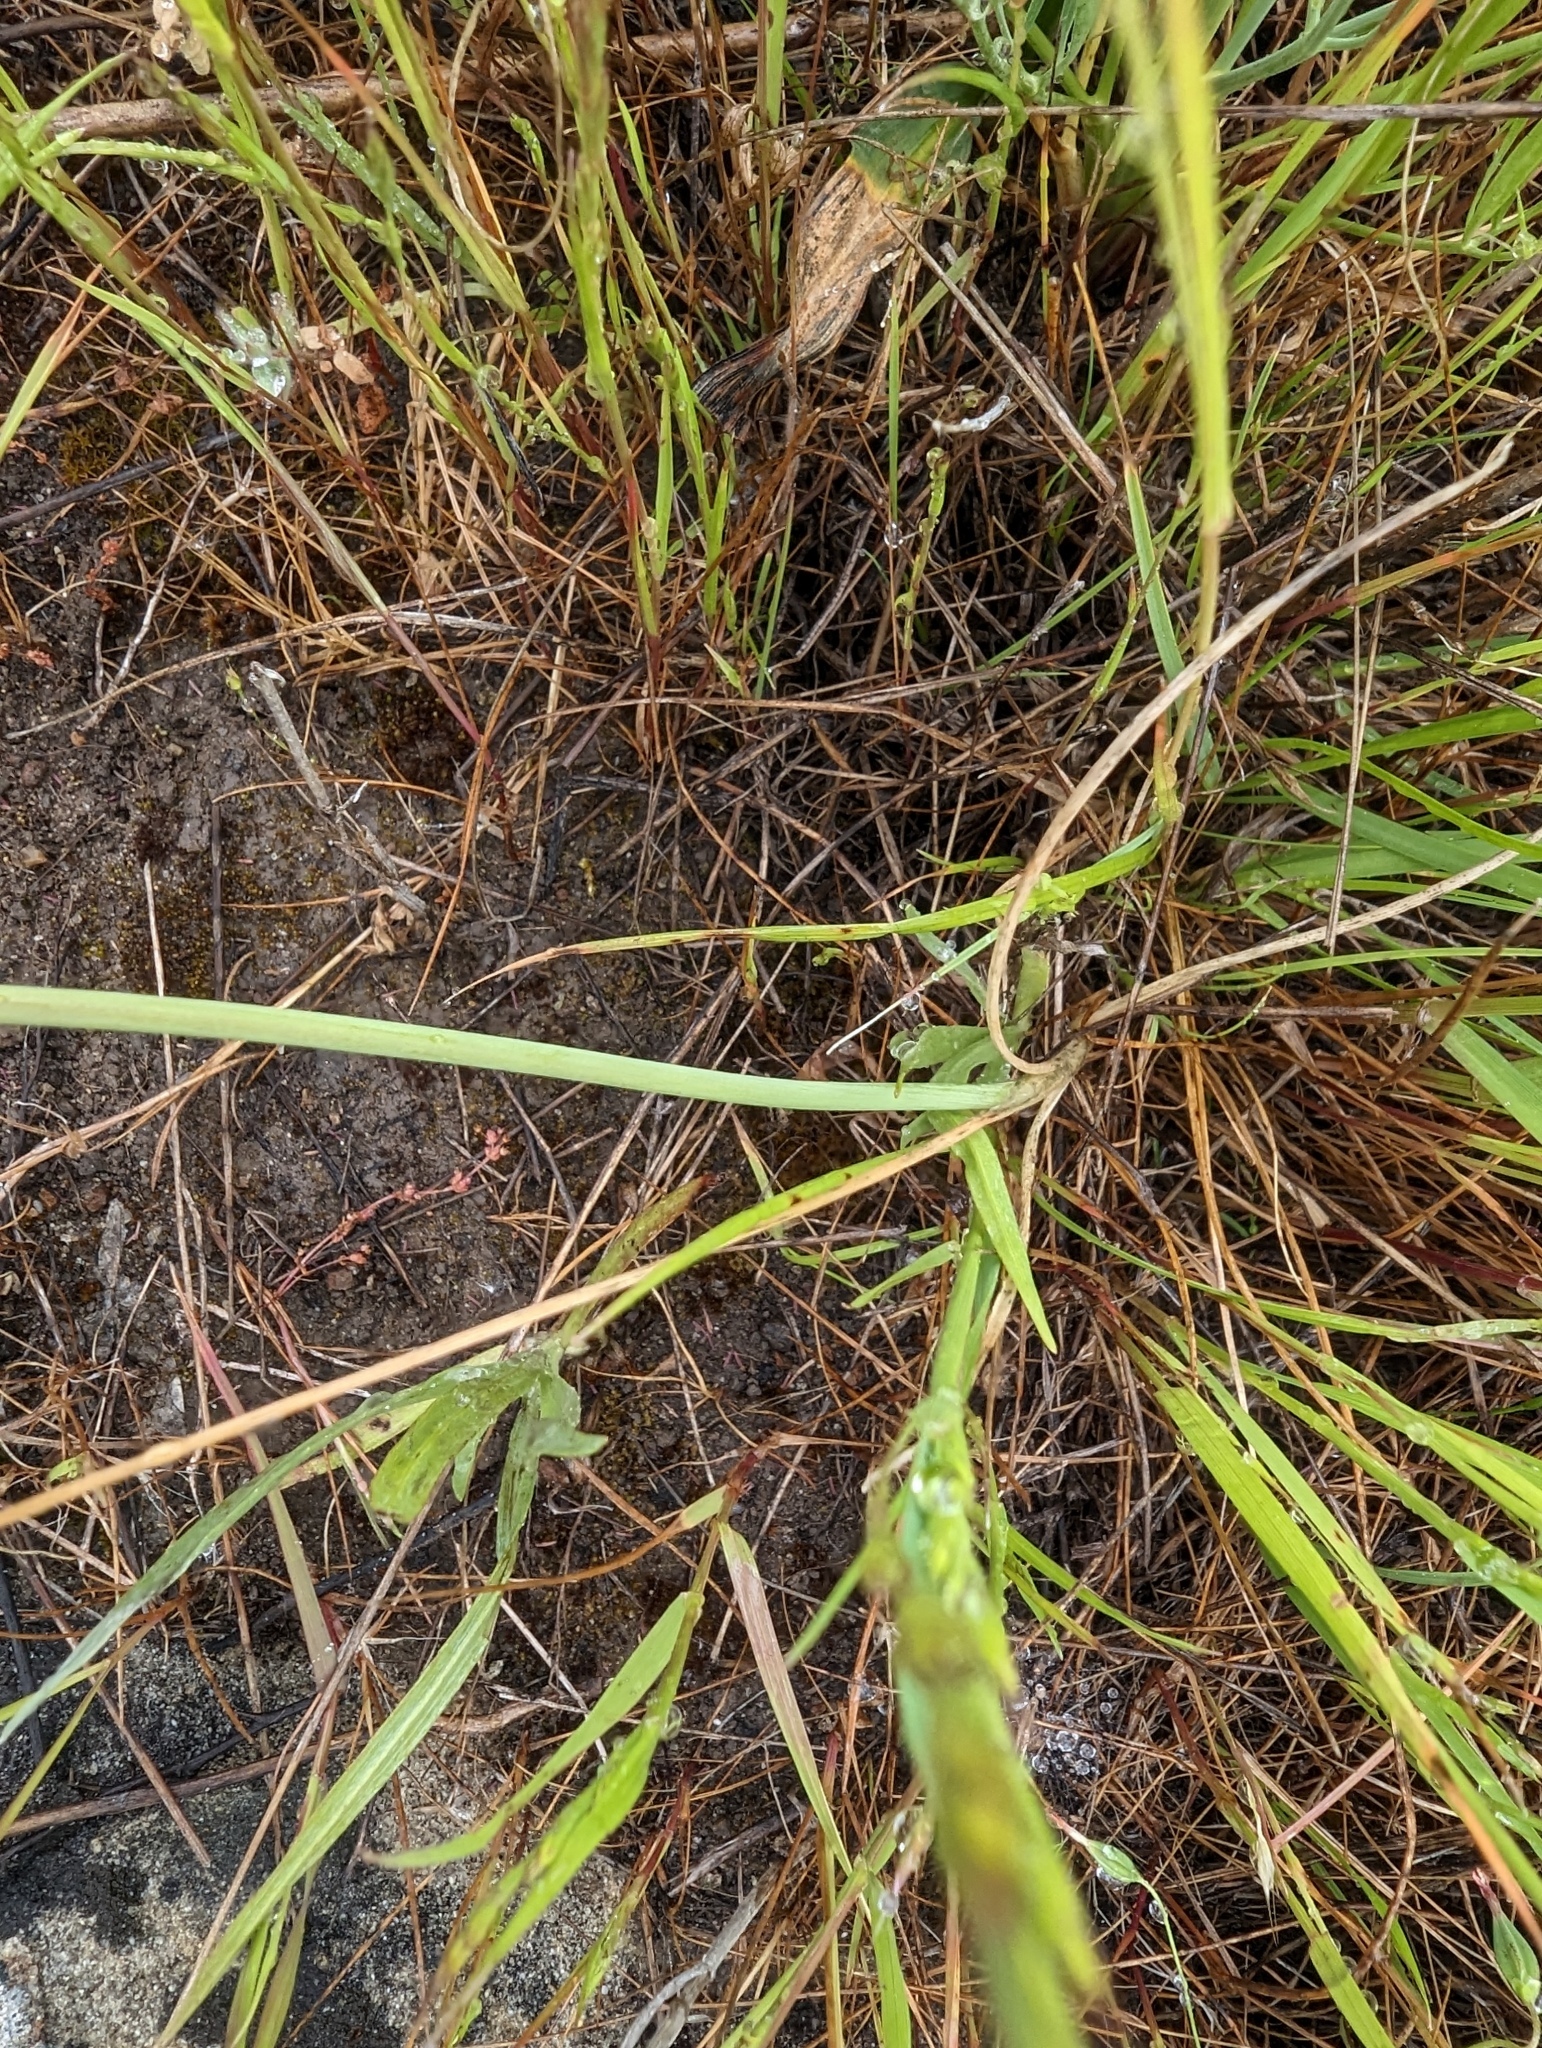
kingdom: Plantae
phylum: Tracheophyta
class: Liliopsida
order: Asparagales
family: Amaryllidaceae
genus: Allium
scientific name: Allium amplectens
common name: Narrow-leaved onion
